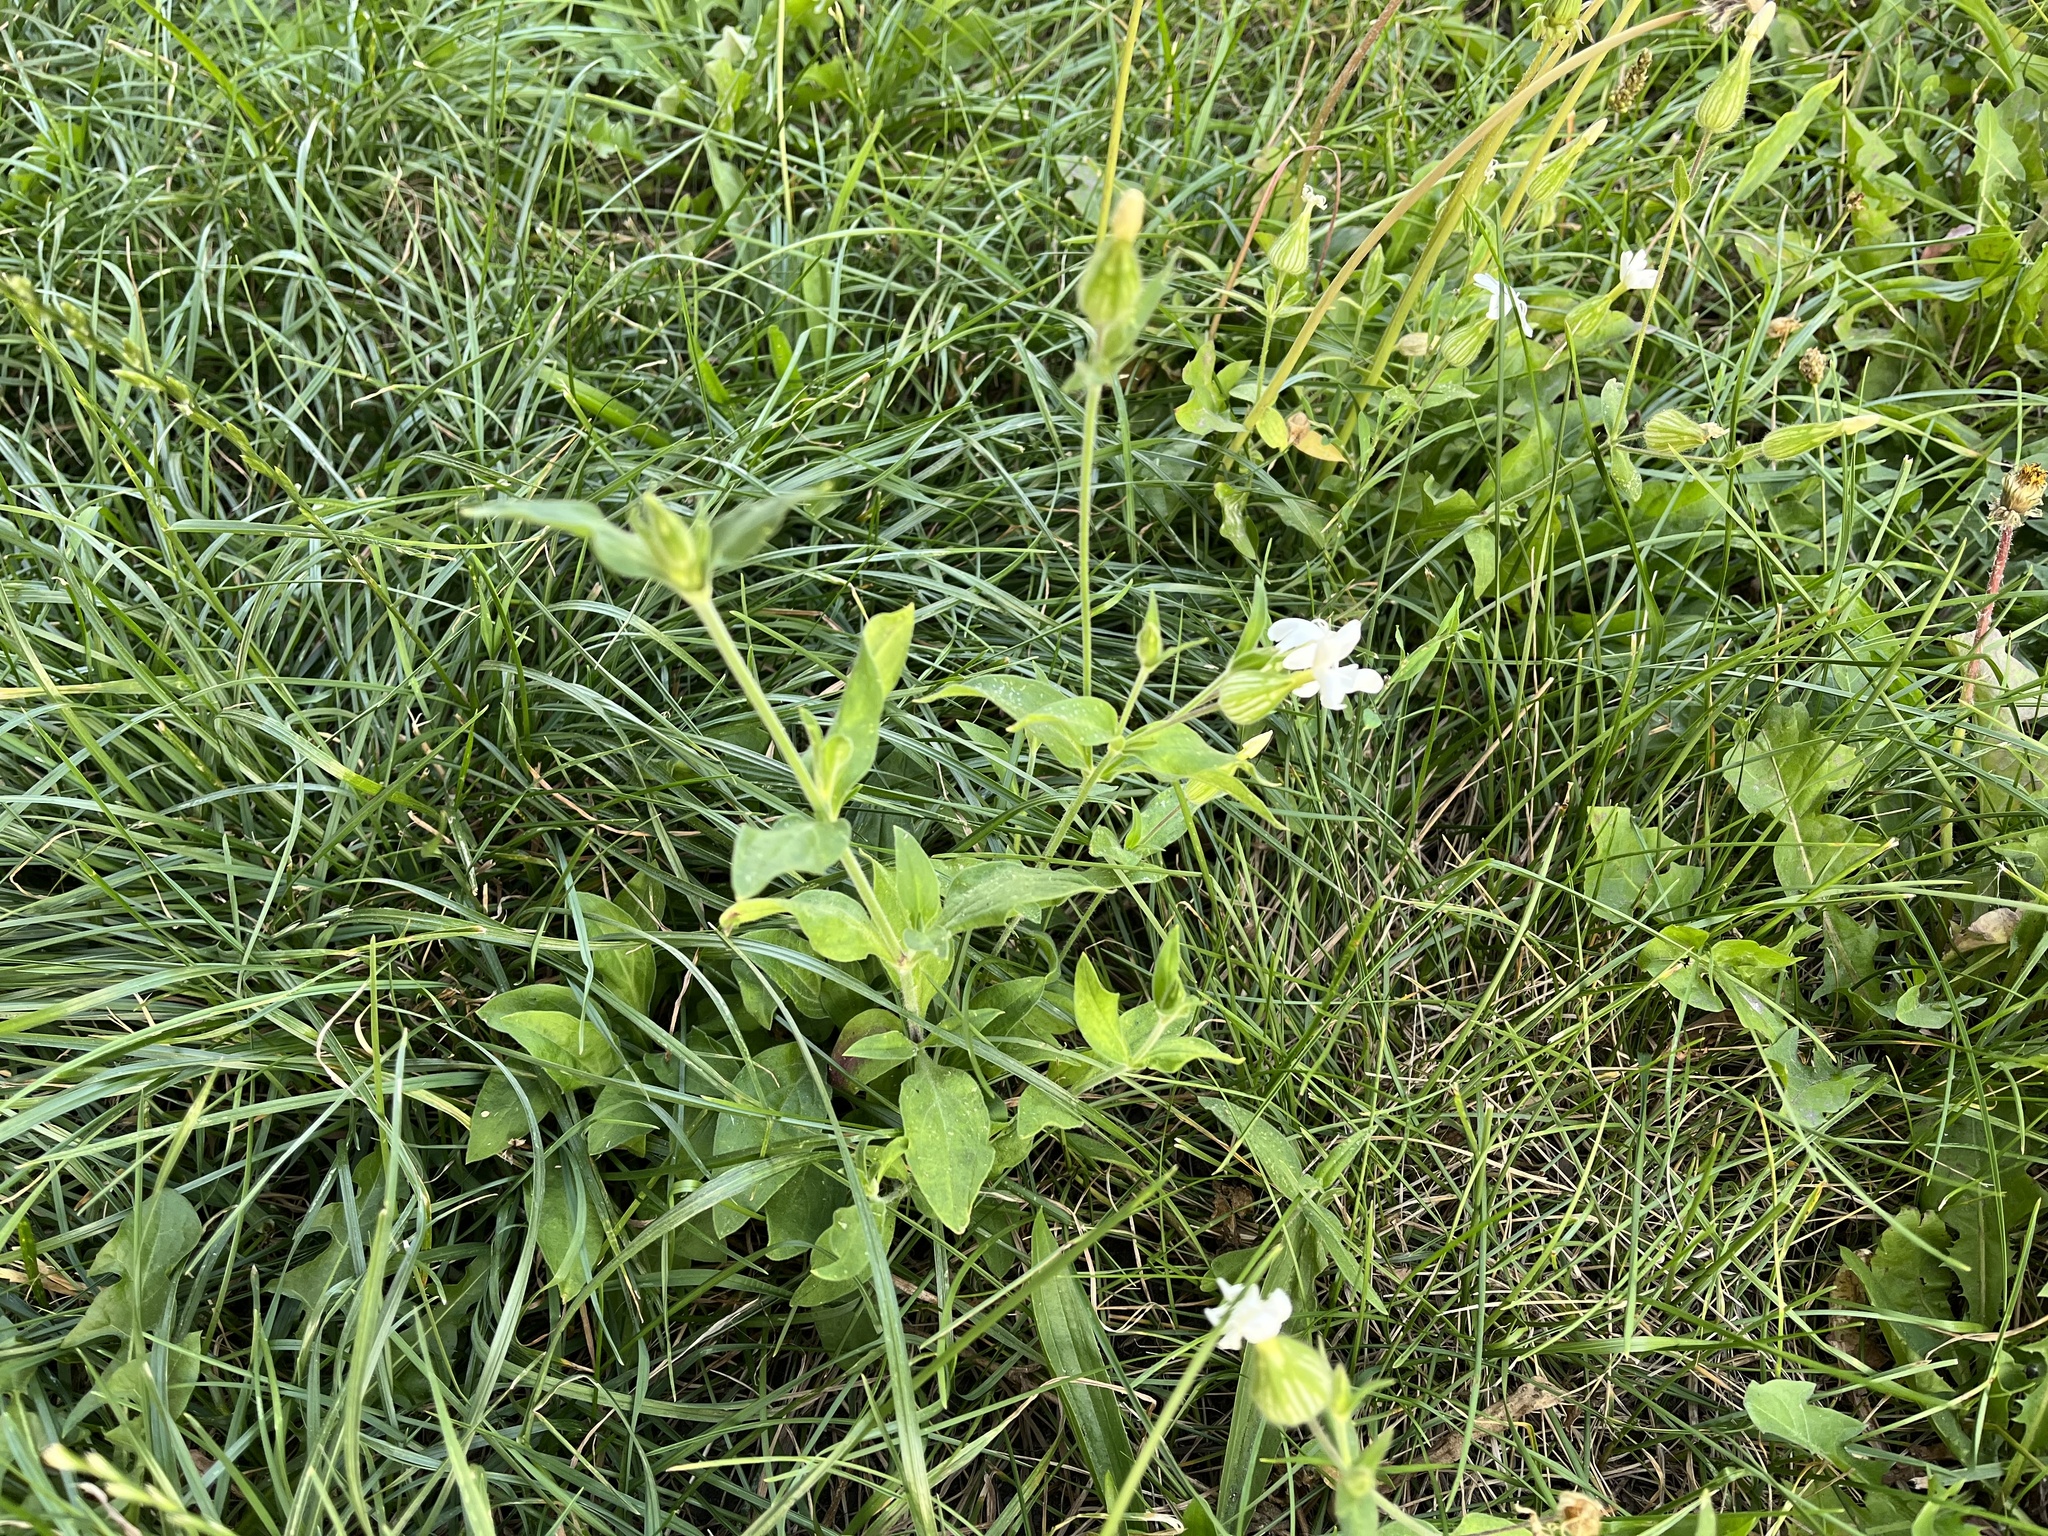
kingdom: Plantae
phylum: Tracheophyta
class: Magnoliopsida
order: Caryophyllales
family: Caryophyllaceae
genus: Silene
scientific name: Silene latifolia
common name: White campion
